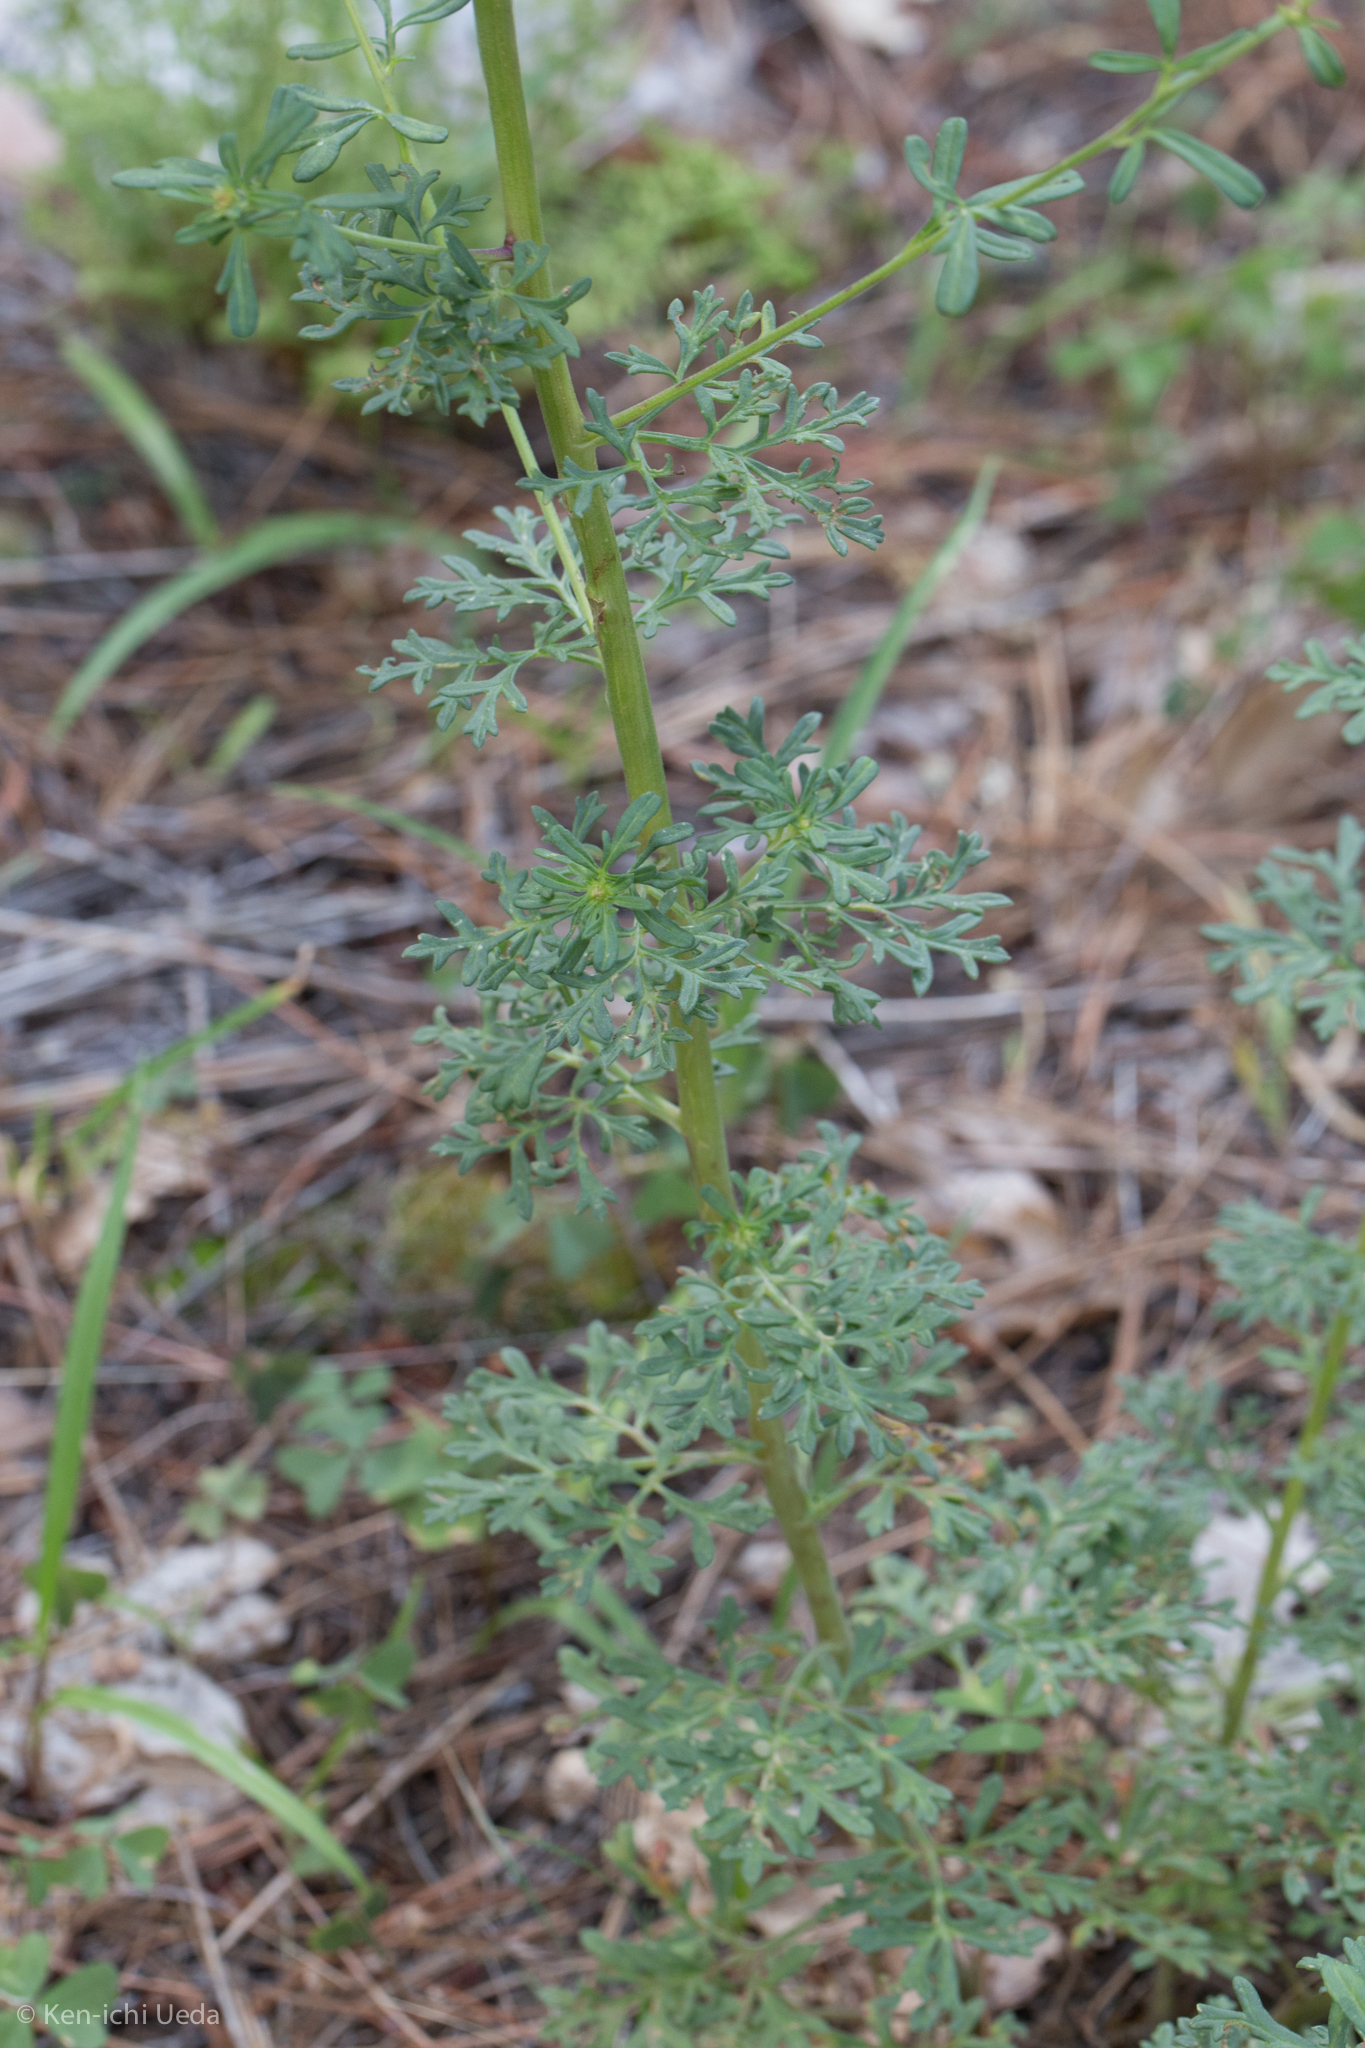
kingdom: Plantae
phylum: Tracheophyta
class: Magnoliopsida
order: Asterales
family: Asteraceae
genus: Hymenothrix
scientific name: Hymenothrix dissecta
